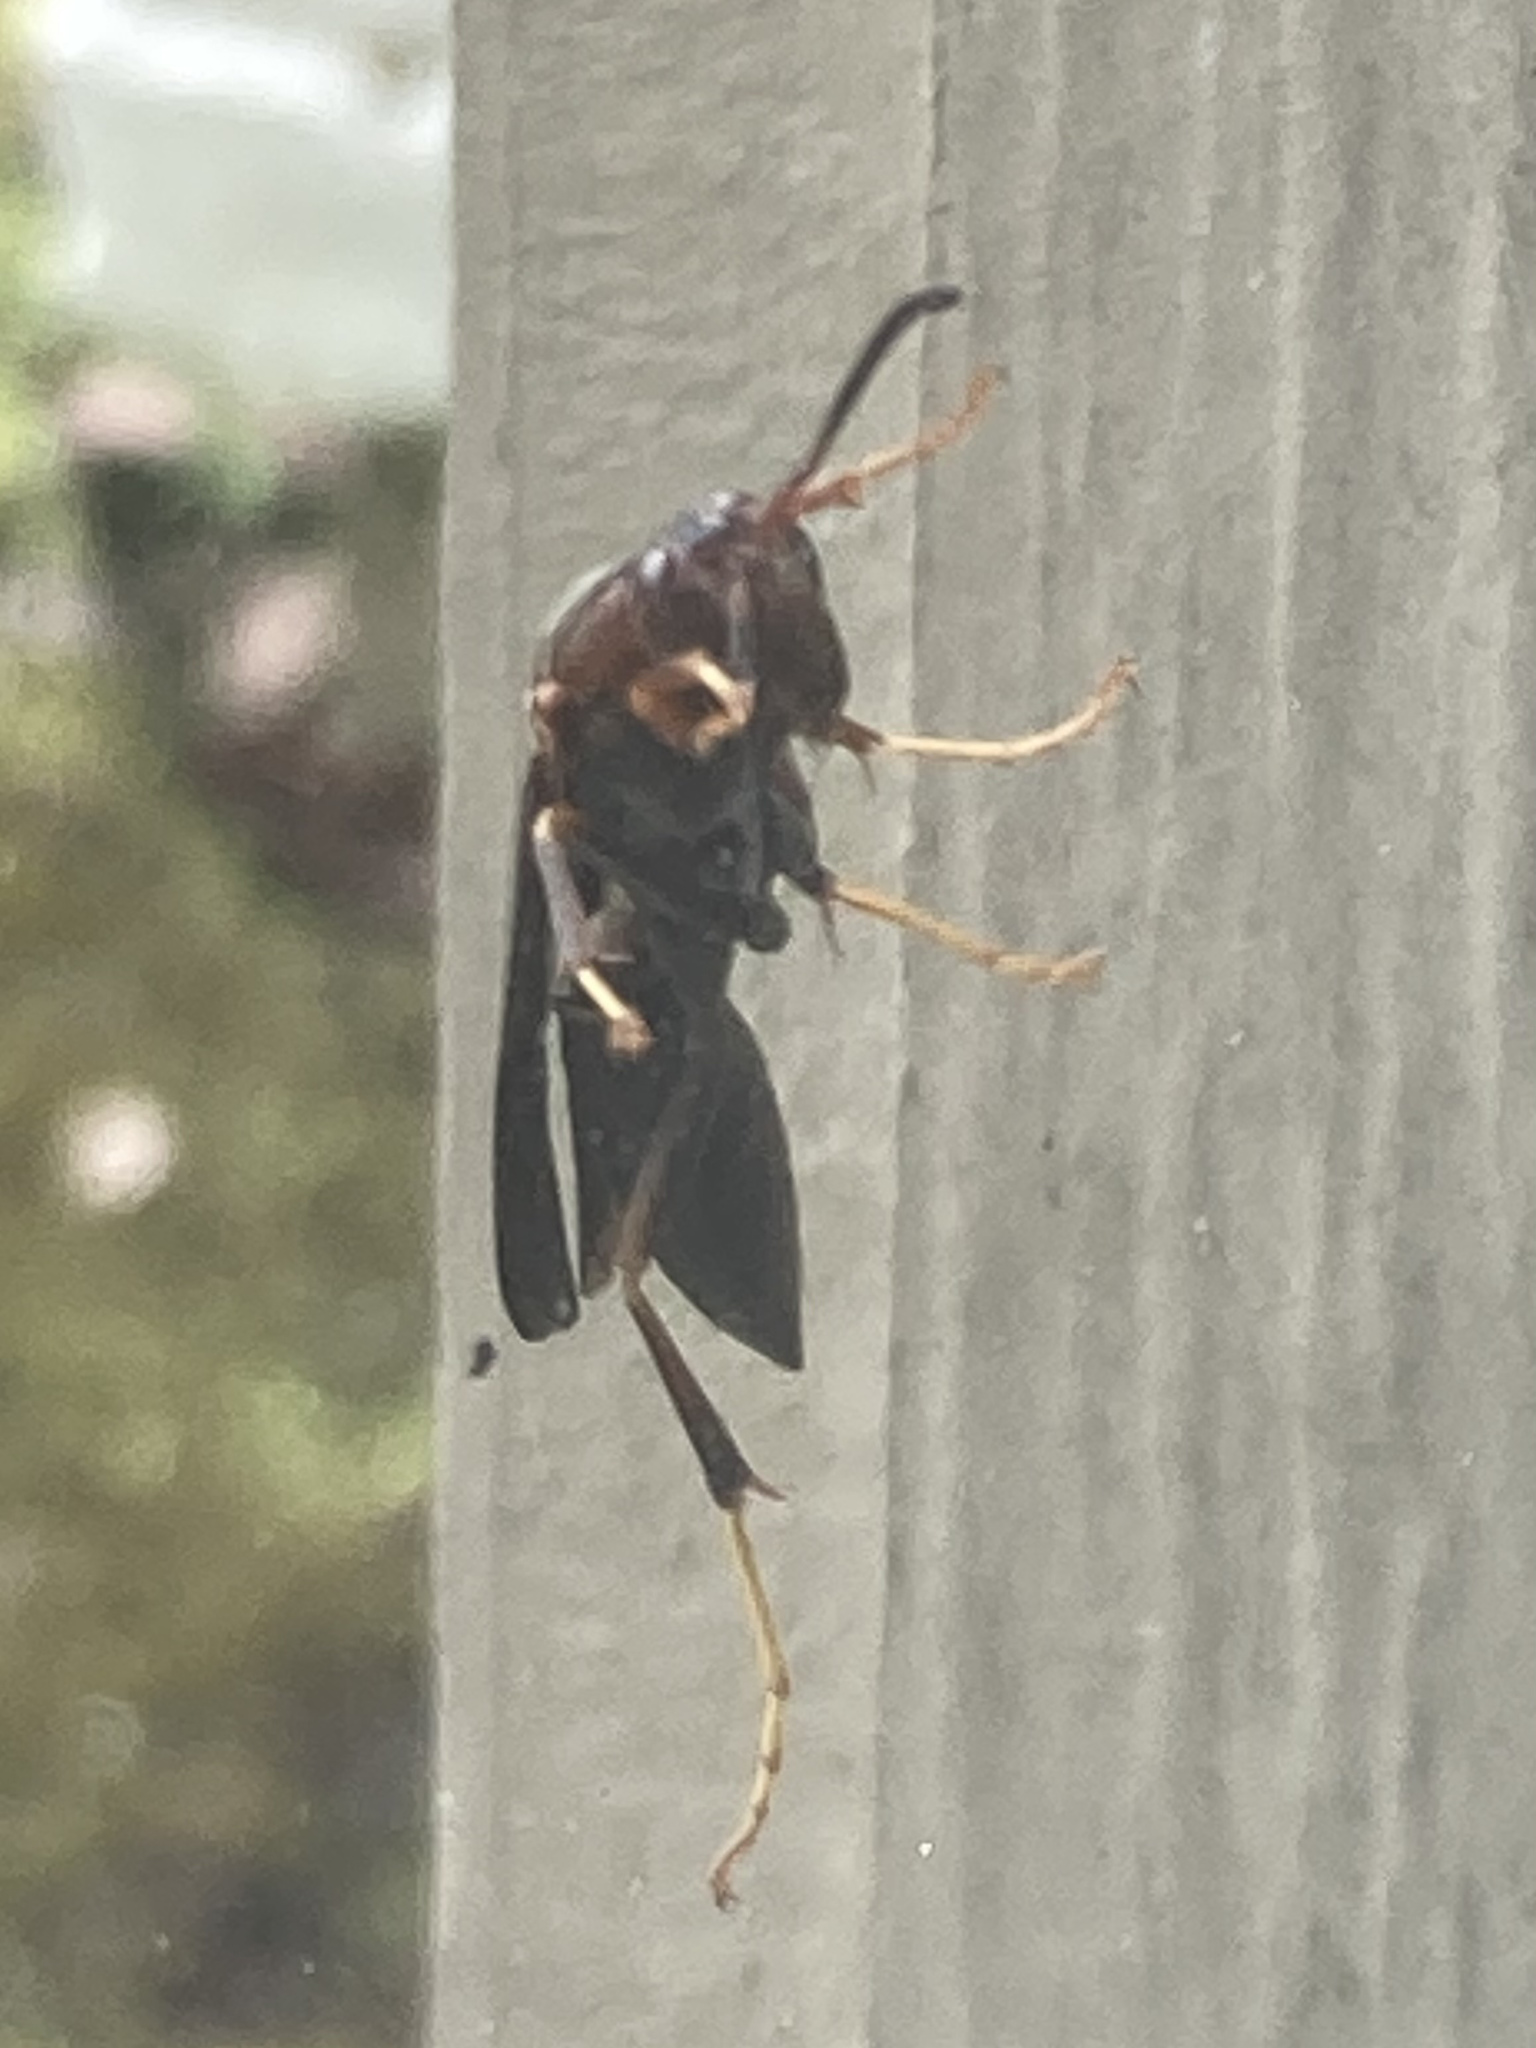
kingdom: Animalia
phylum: Arthropoda
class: Insecta
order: Hymenoptera
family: Eumenidae
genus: Polistes
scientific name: Polistes metricus
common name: Metric paper wasp
